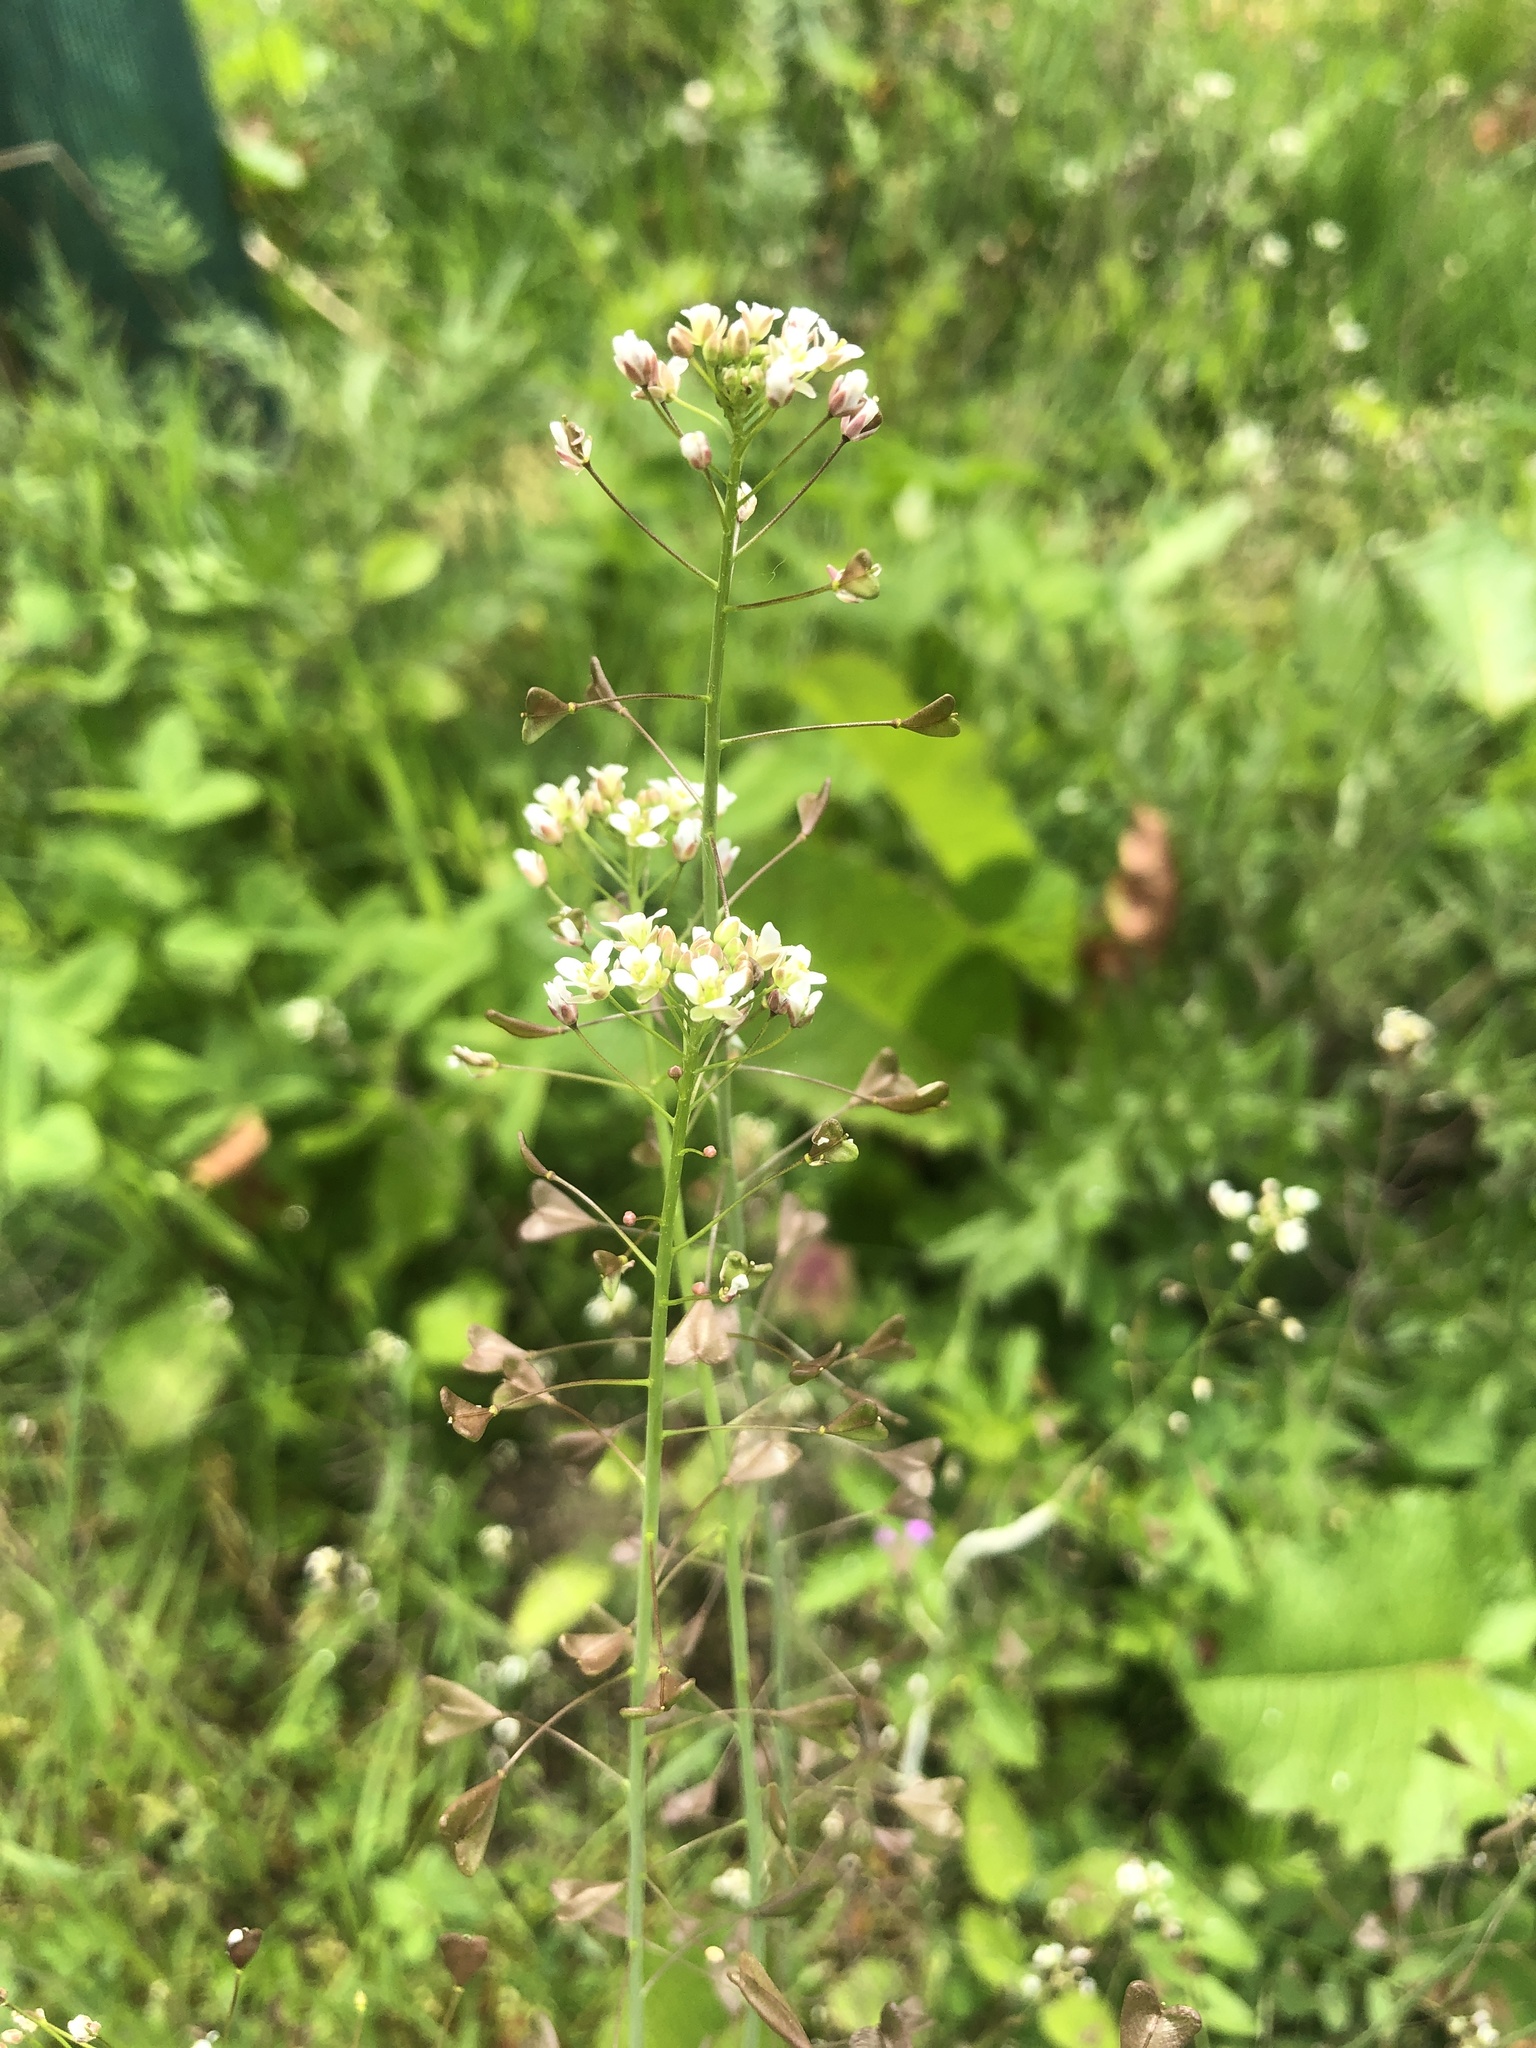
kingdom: Plantae
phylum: Tracheophyta
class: Magnoliopsida
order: Brassicales
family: Brassicaceae
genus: Capsella
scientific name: Capsella bursa-pastoris
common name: Shepherd's purse
